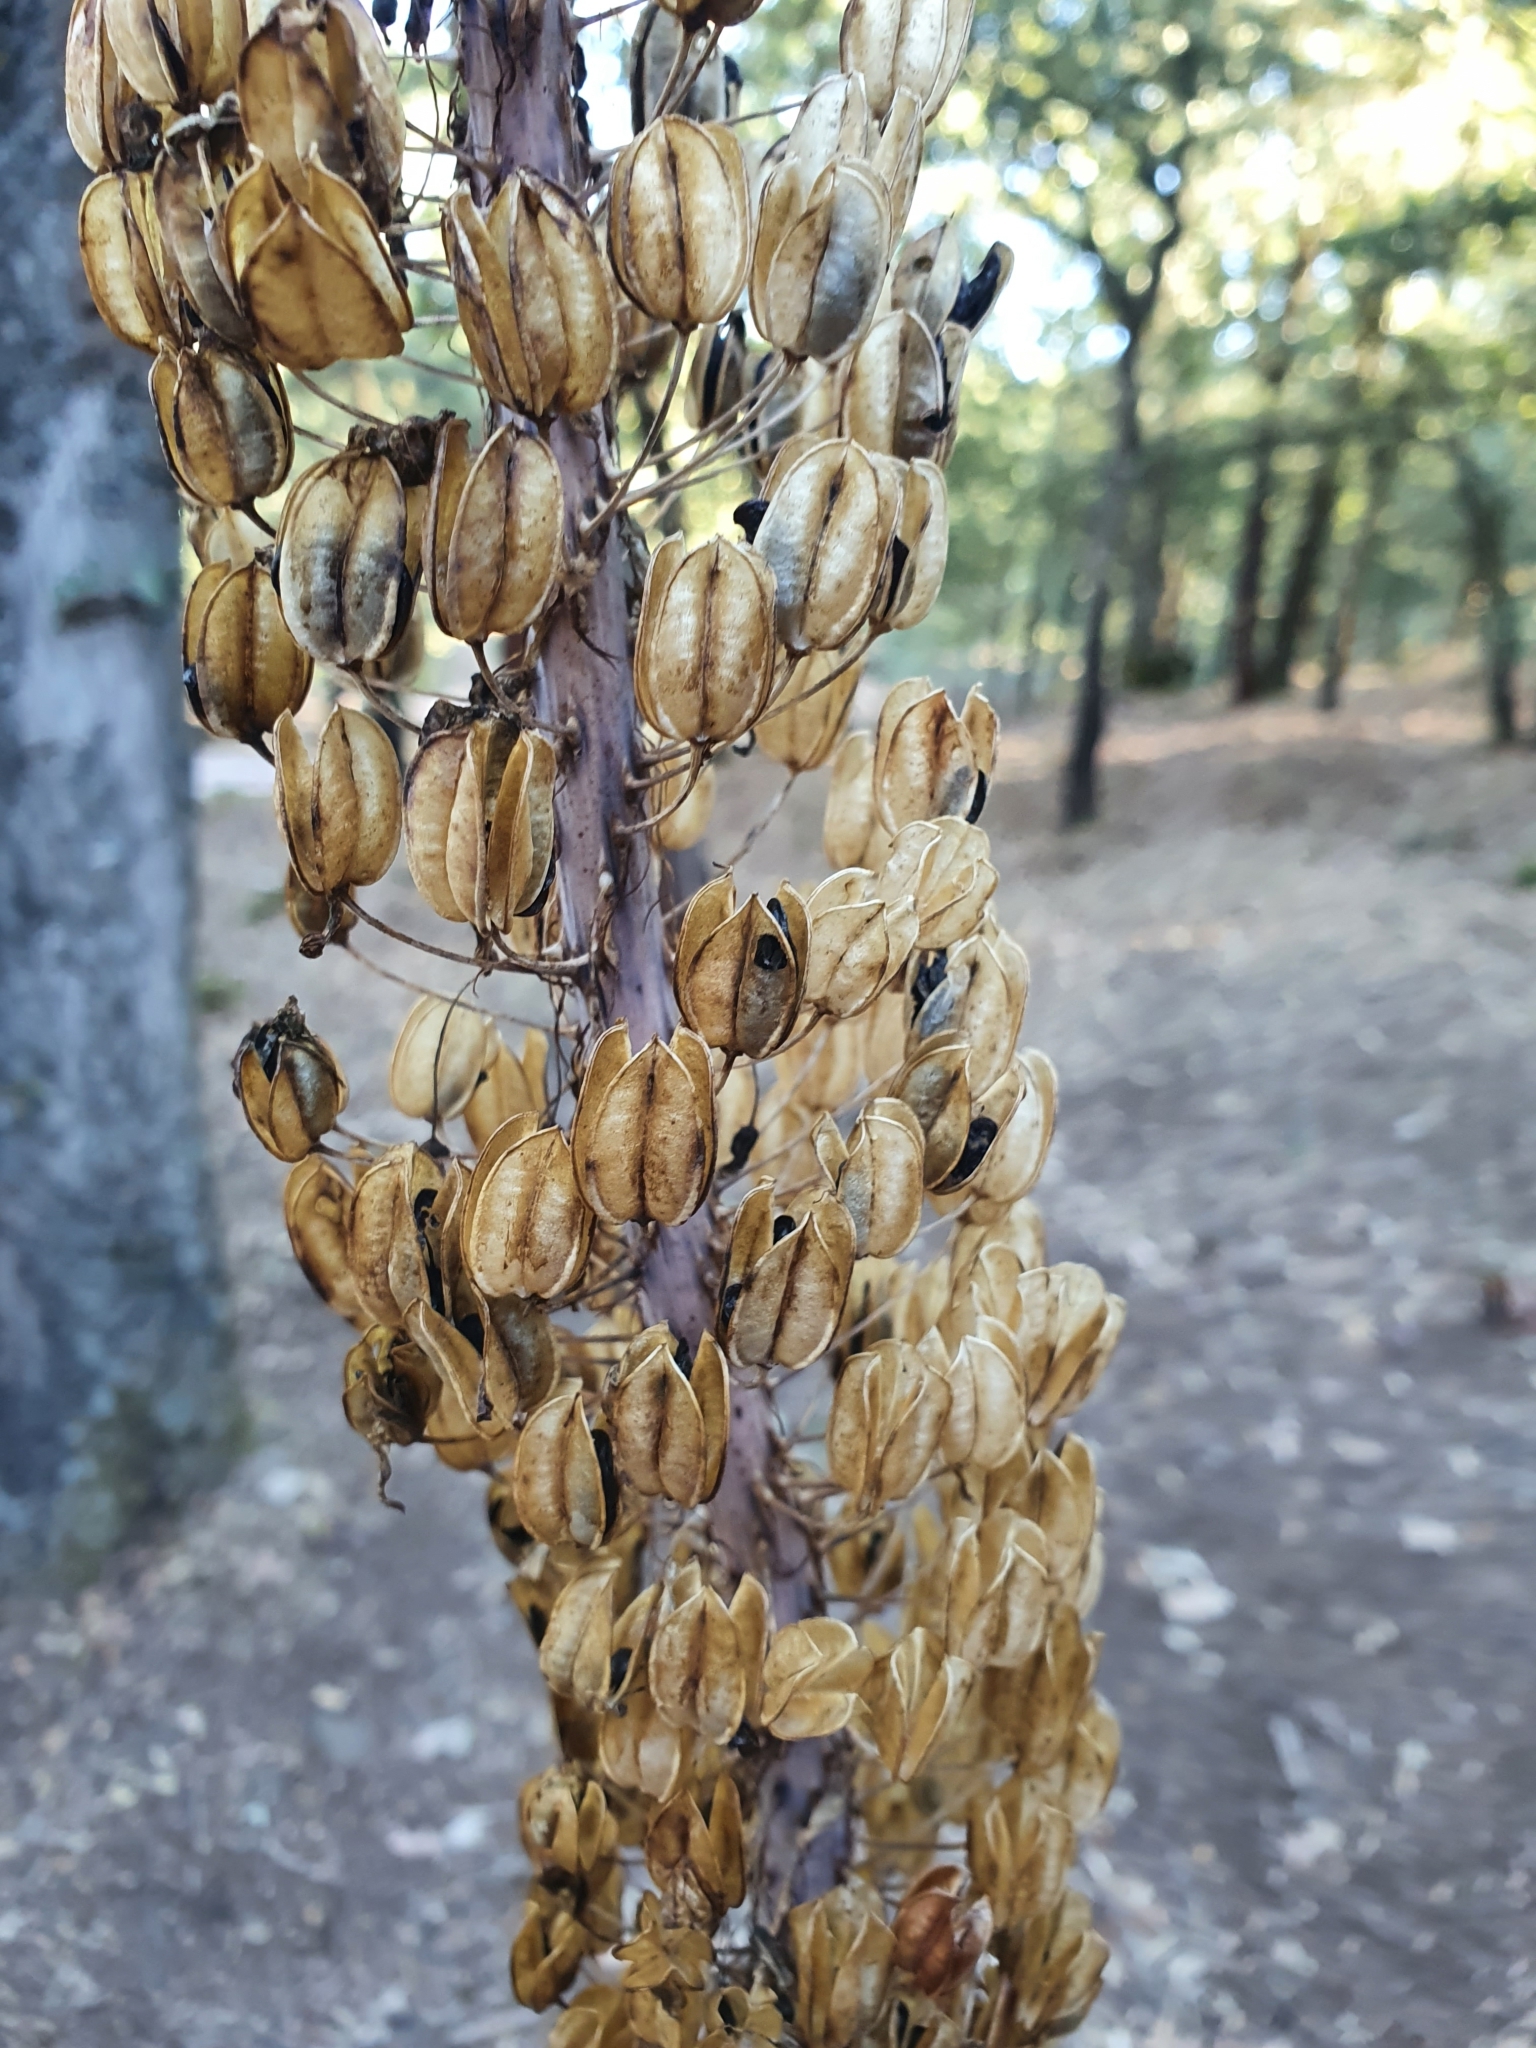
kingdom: Plantae
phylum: Tracheophyta
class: Liliopsida
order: Asparagales
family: Asparagaceae
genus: Drimia
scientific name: Drimia numidica
